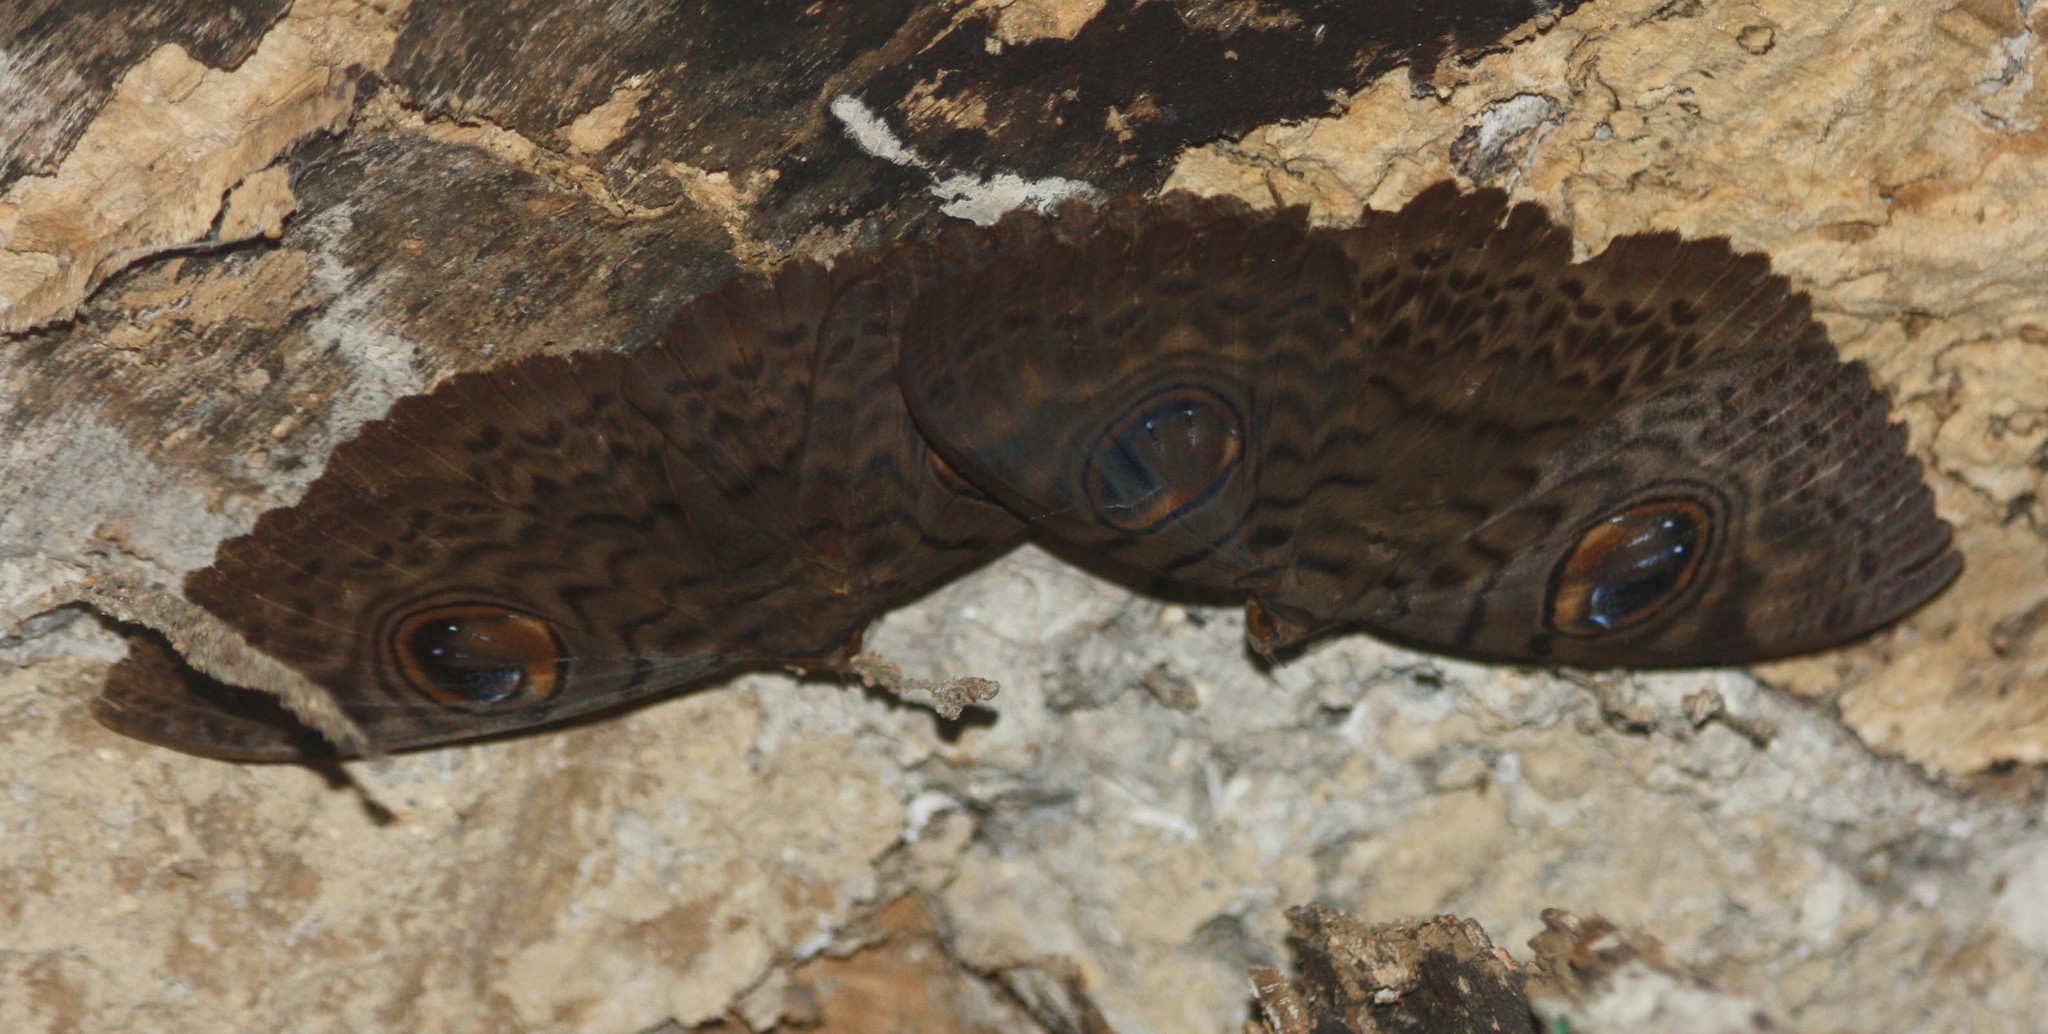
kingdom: Animalia
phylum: Arthropoda
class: Insecta
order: Lepidoptera
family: Erebidae
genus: Erebus
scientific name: Erebus macrops
